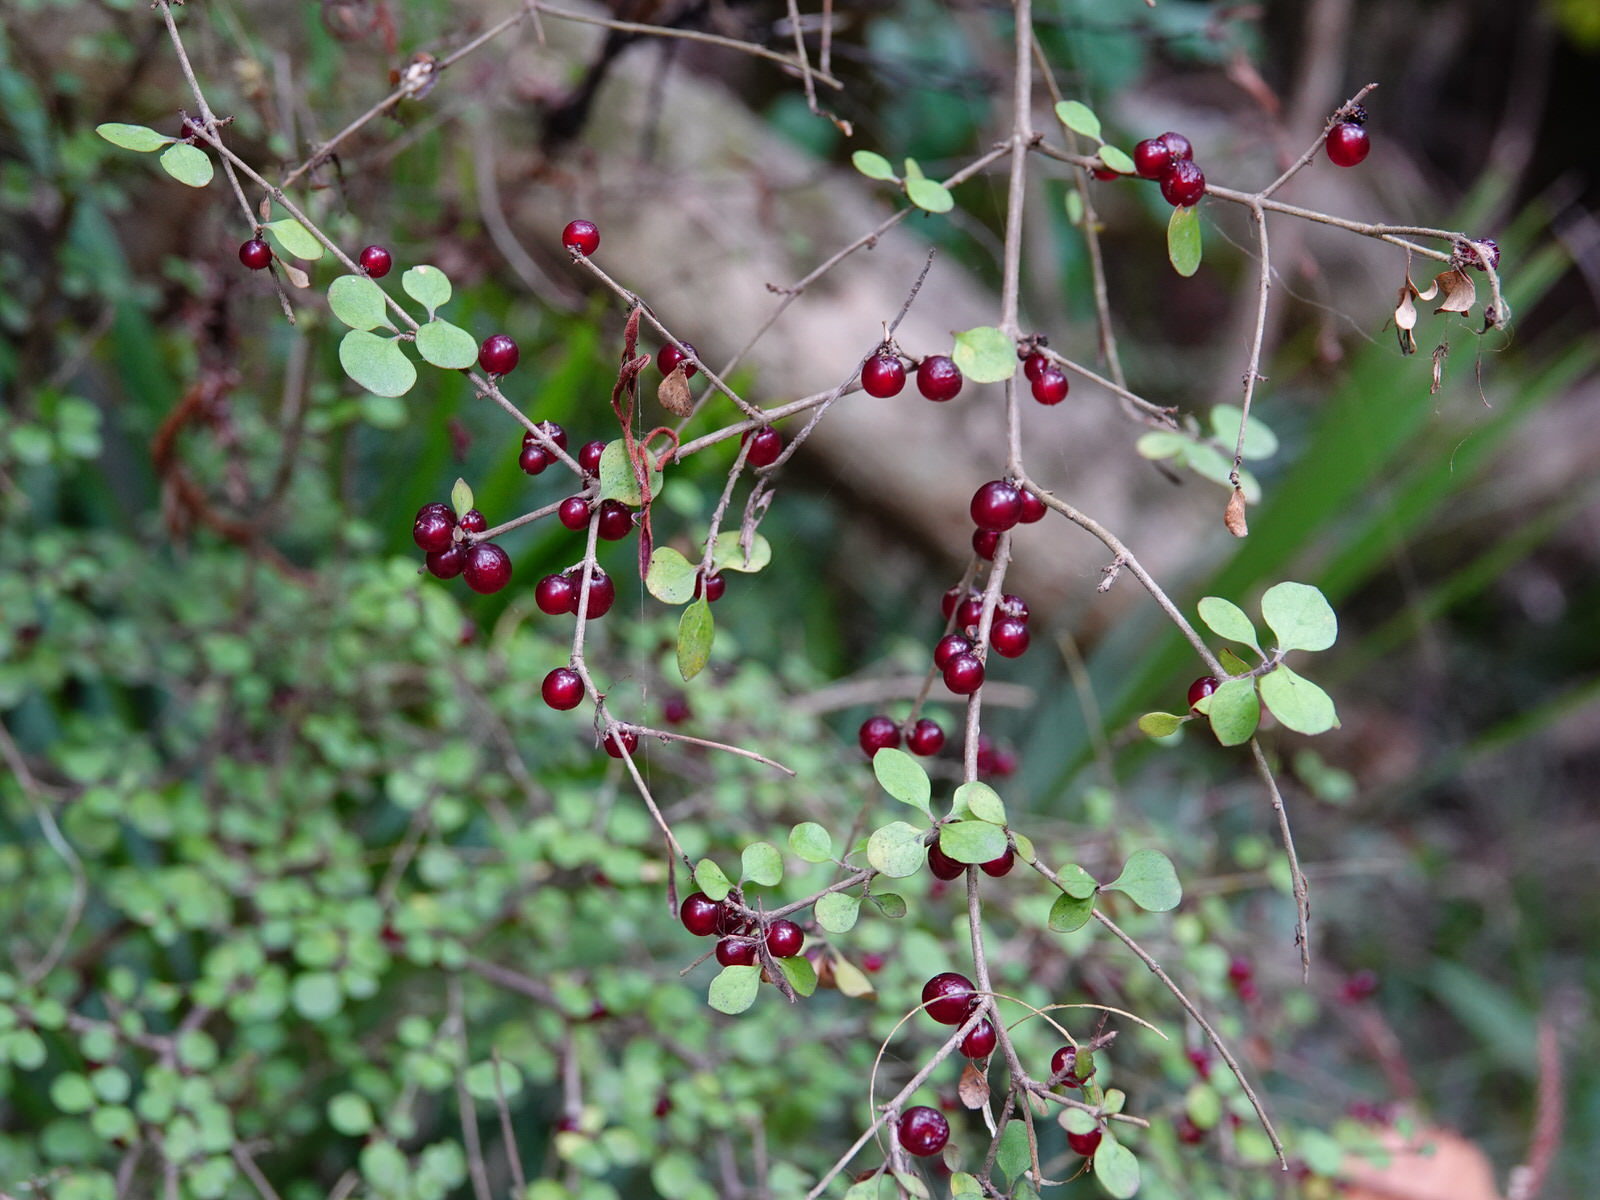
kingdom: Plantae
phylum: Tracheophyta
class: Magnoliopsida
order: Gentianales
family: Rubiaceae
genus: Coprosma
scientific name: Coprosma rhamnoides
